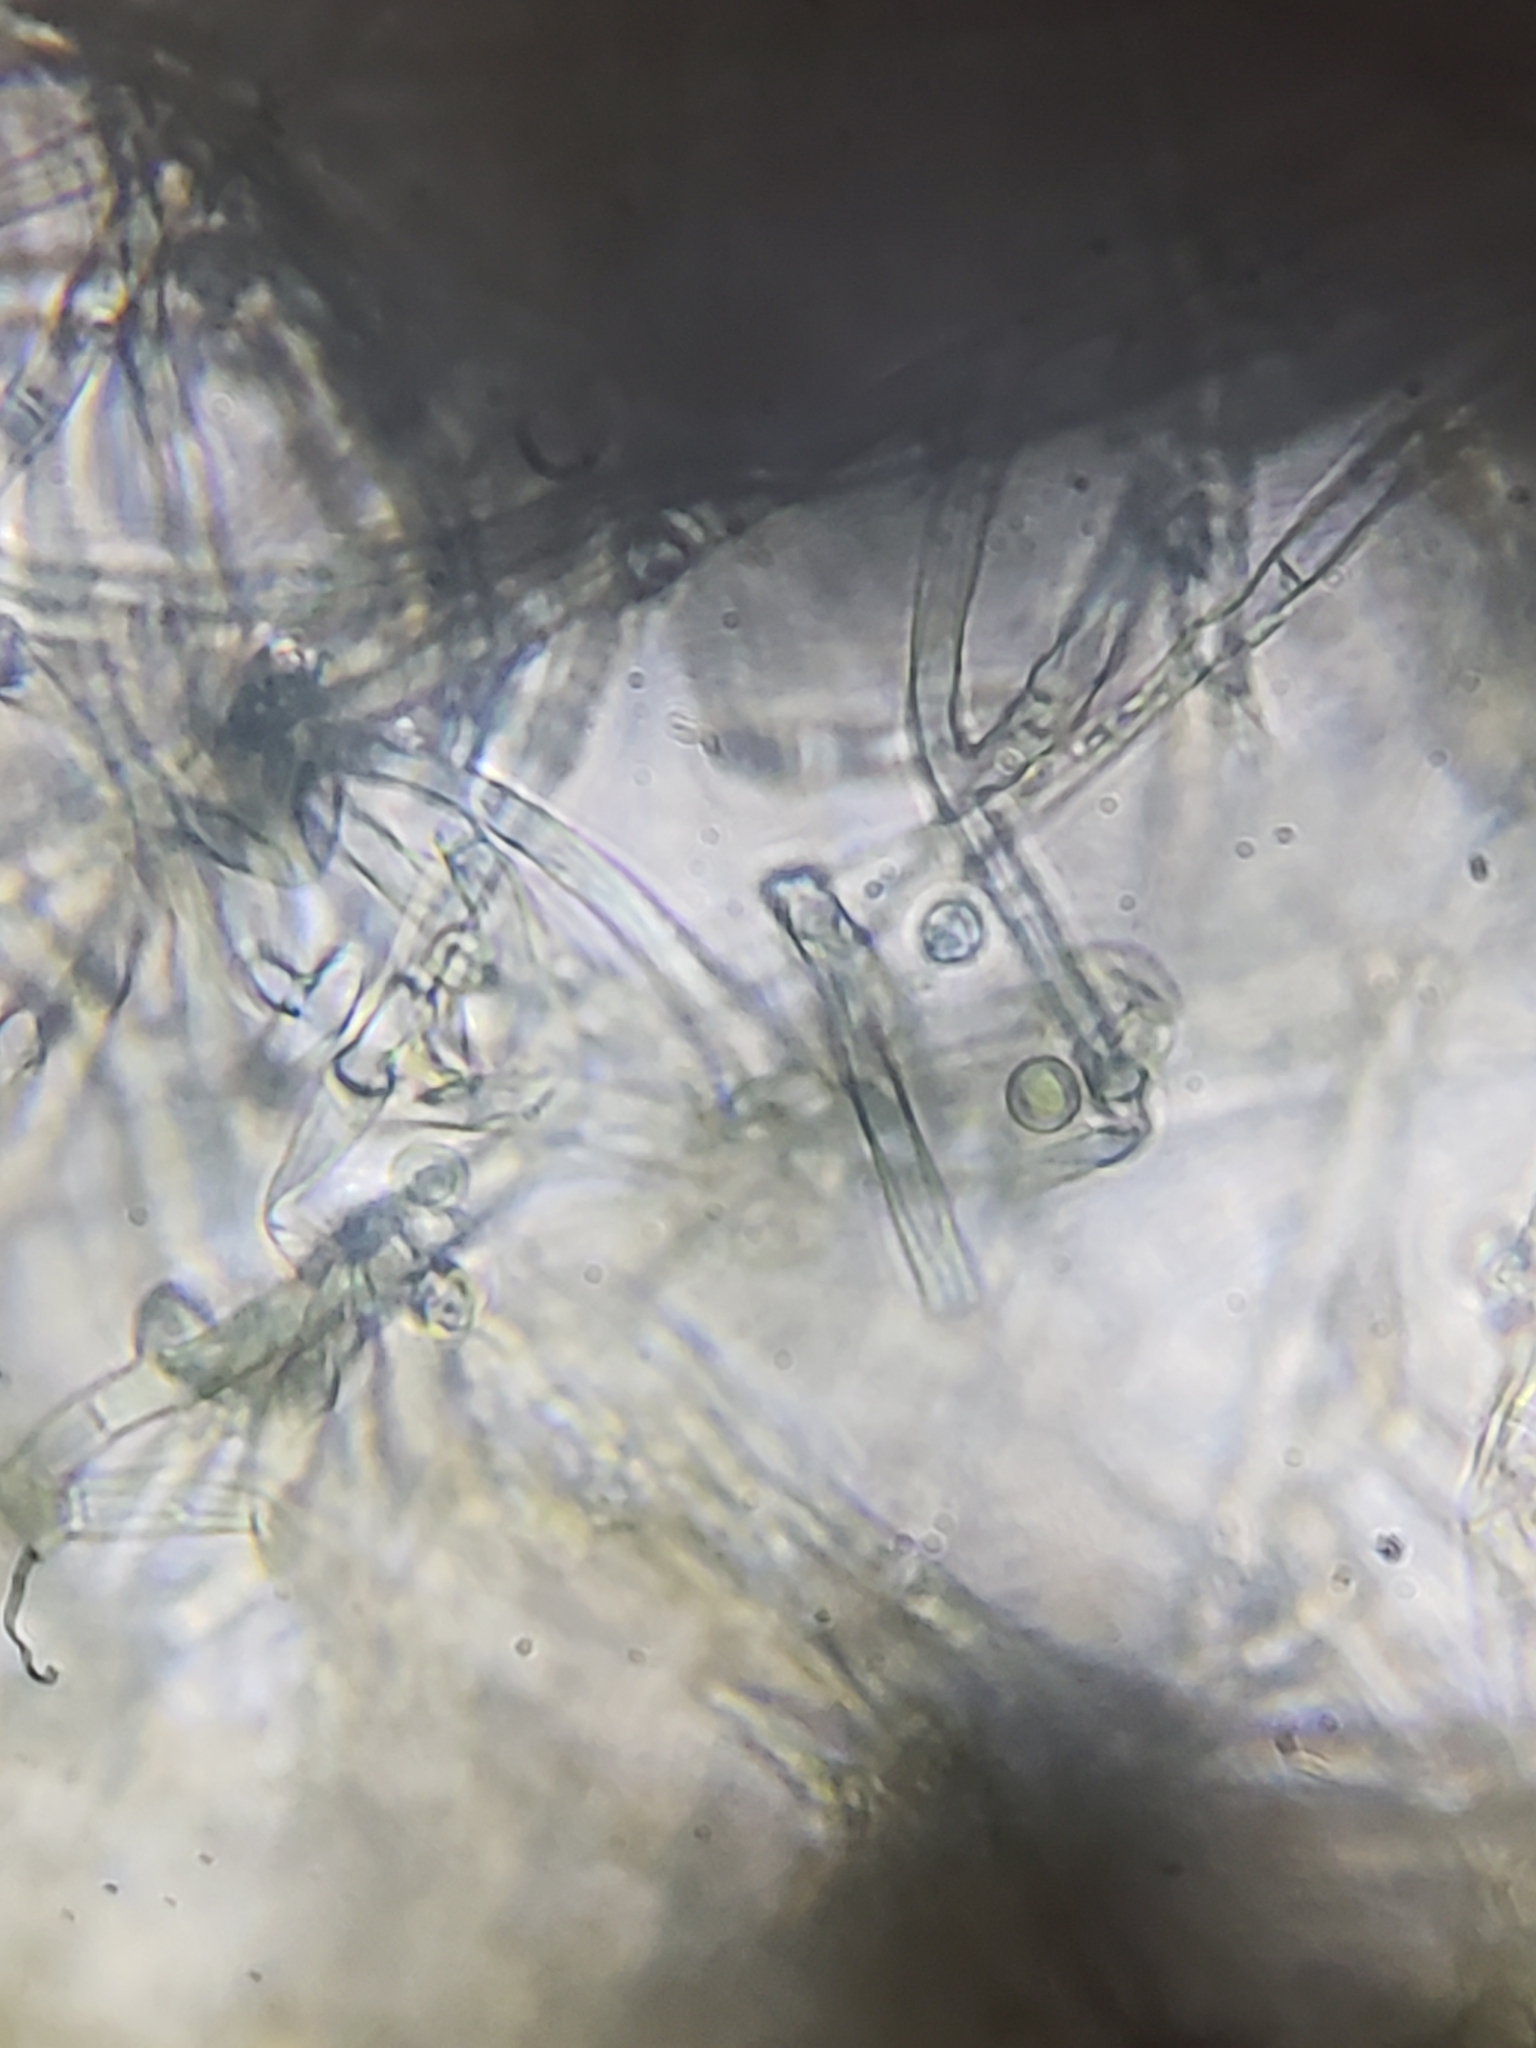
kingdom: Fungi
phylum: Basidiomycota
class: Agaricomycetes
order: Atheliales
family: Atheliaceae
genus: Byssocorticium
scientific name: Byssocorticium atrovirens
